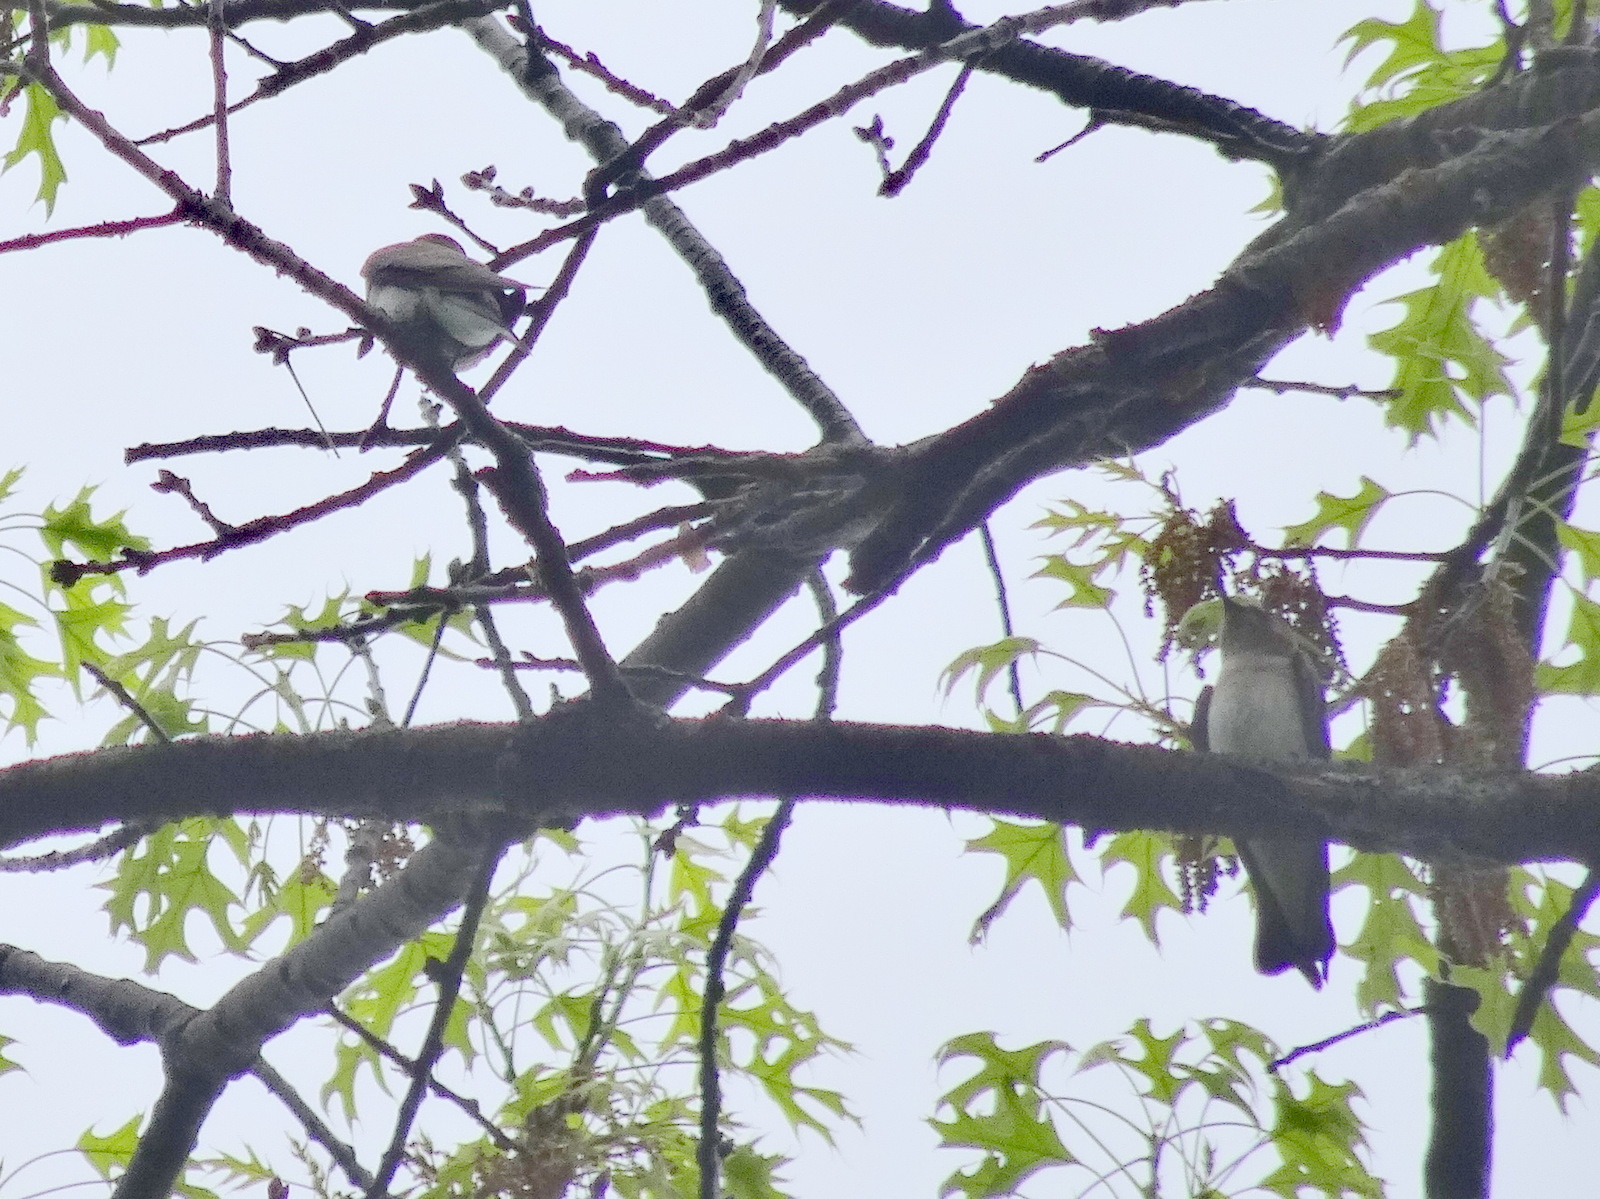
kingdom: Animalia
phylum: Chordata
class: Aves
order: Passeriformes
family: Hirundinidae
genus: Stelgidopteryx
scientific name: Stelgidopteryx serripennis
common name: Northern rough-winged swallow
